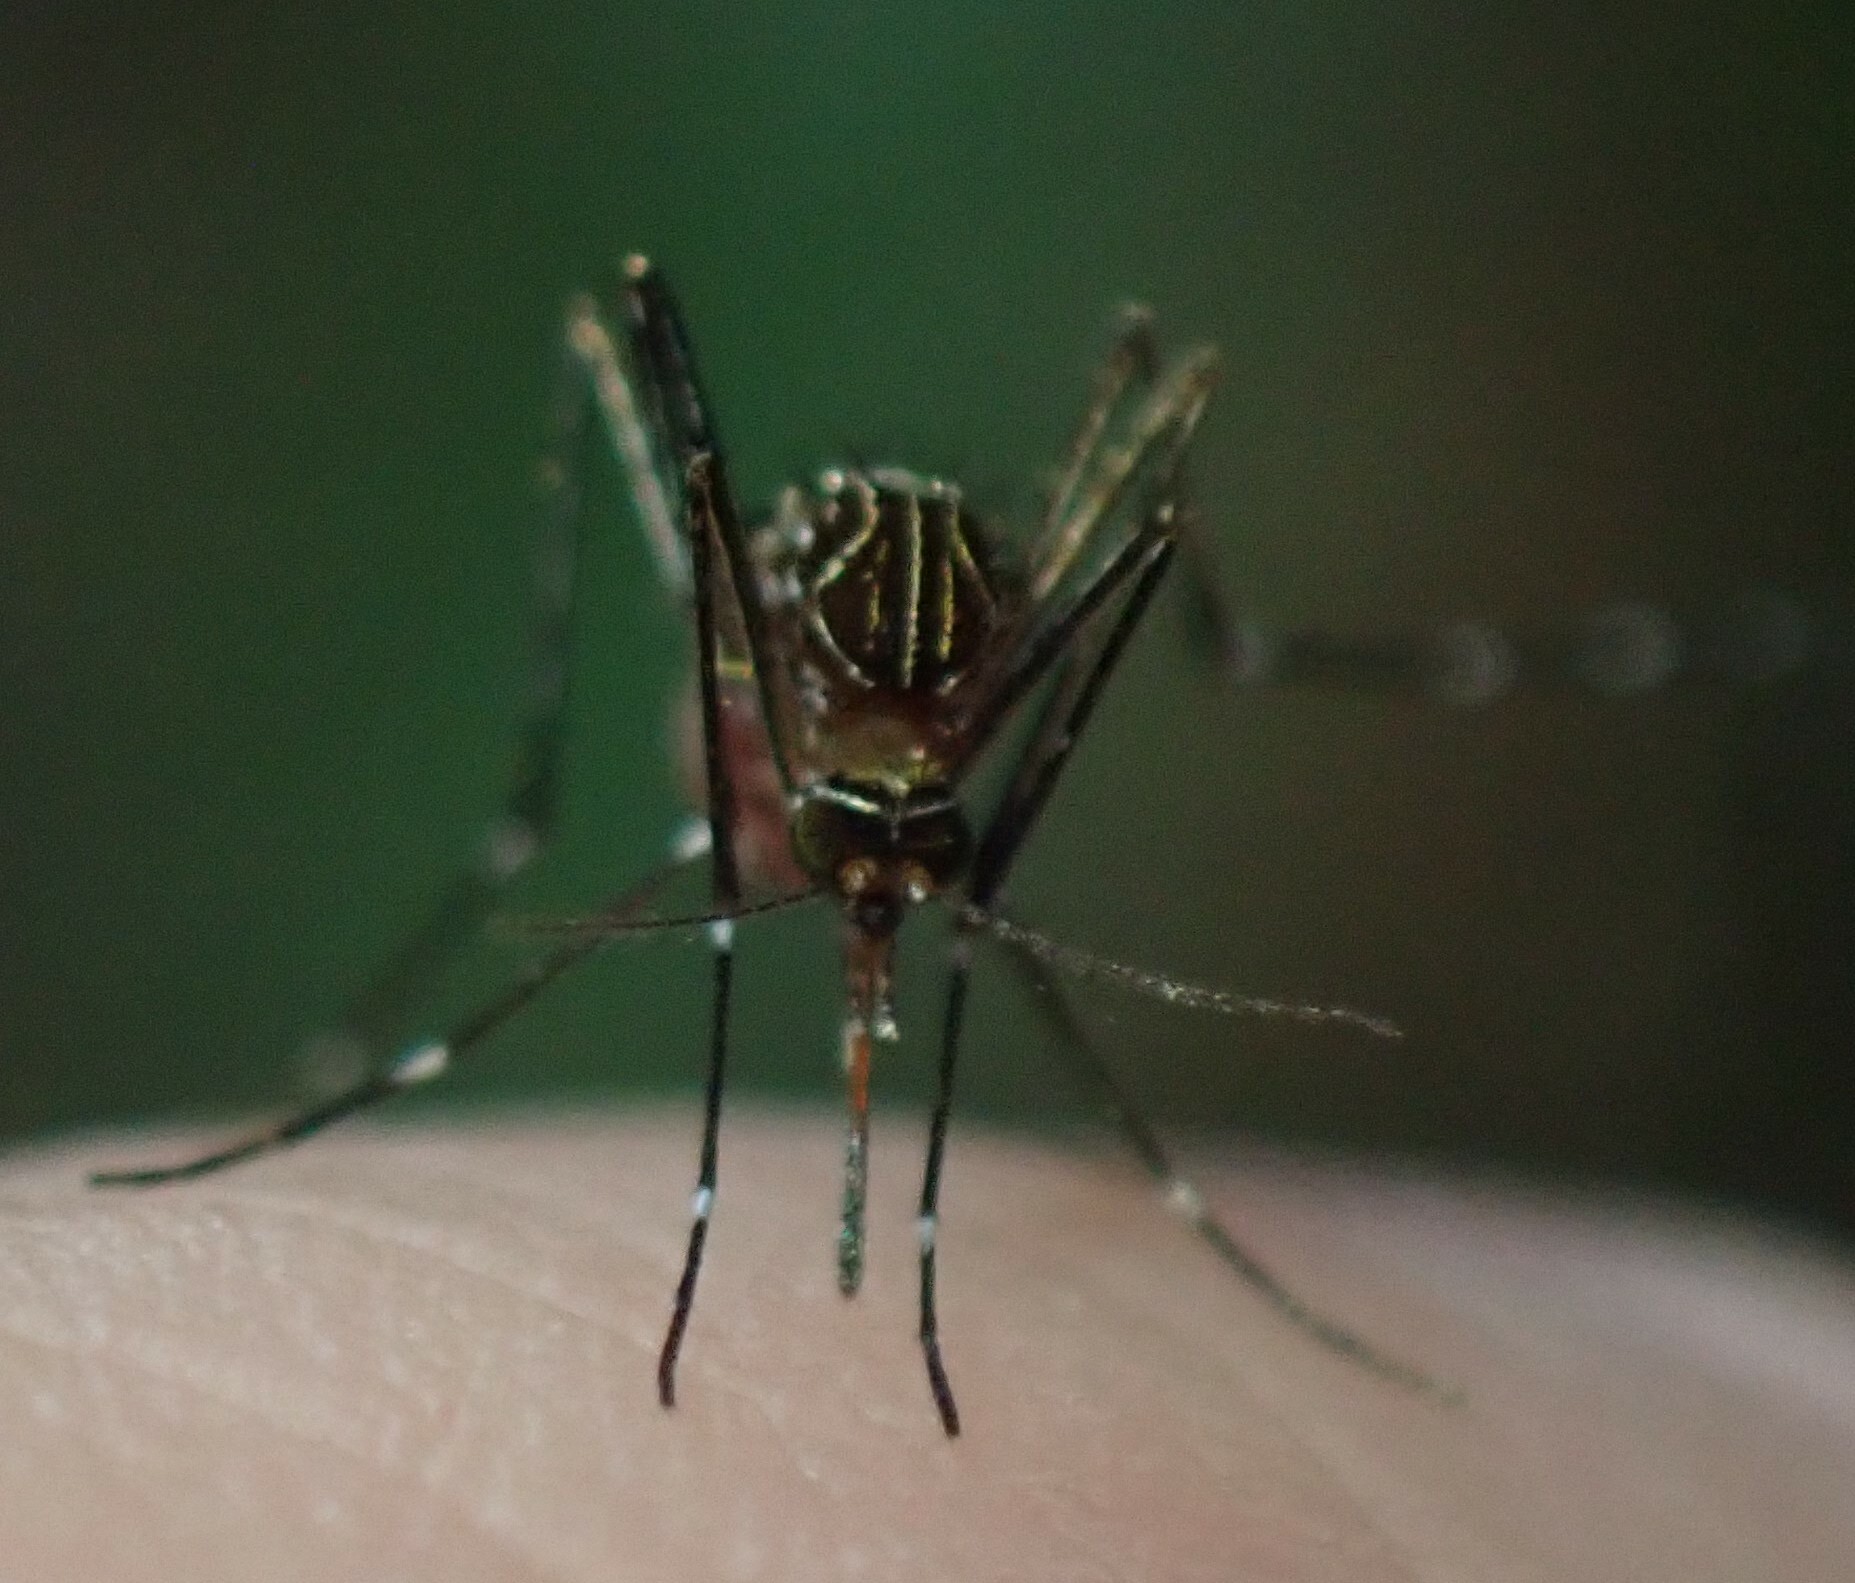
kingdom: Animalia
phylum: Arthropoda
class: Insecta
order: Diptera
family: Culicidae
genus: Aedes
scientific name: Aedes notoscriptus
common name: Australian backyard mosquito
